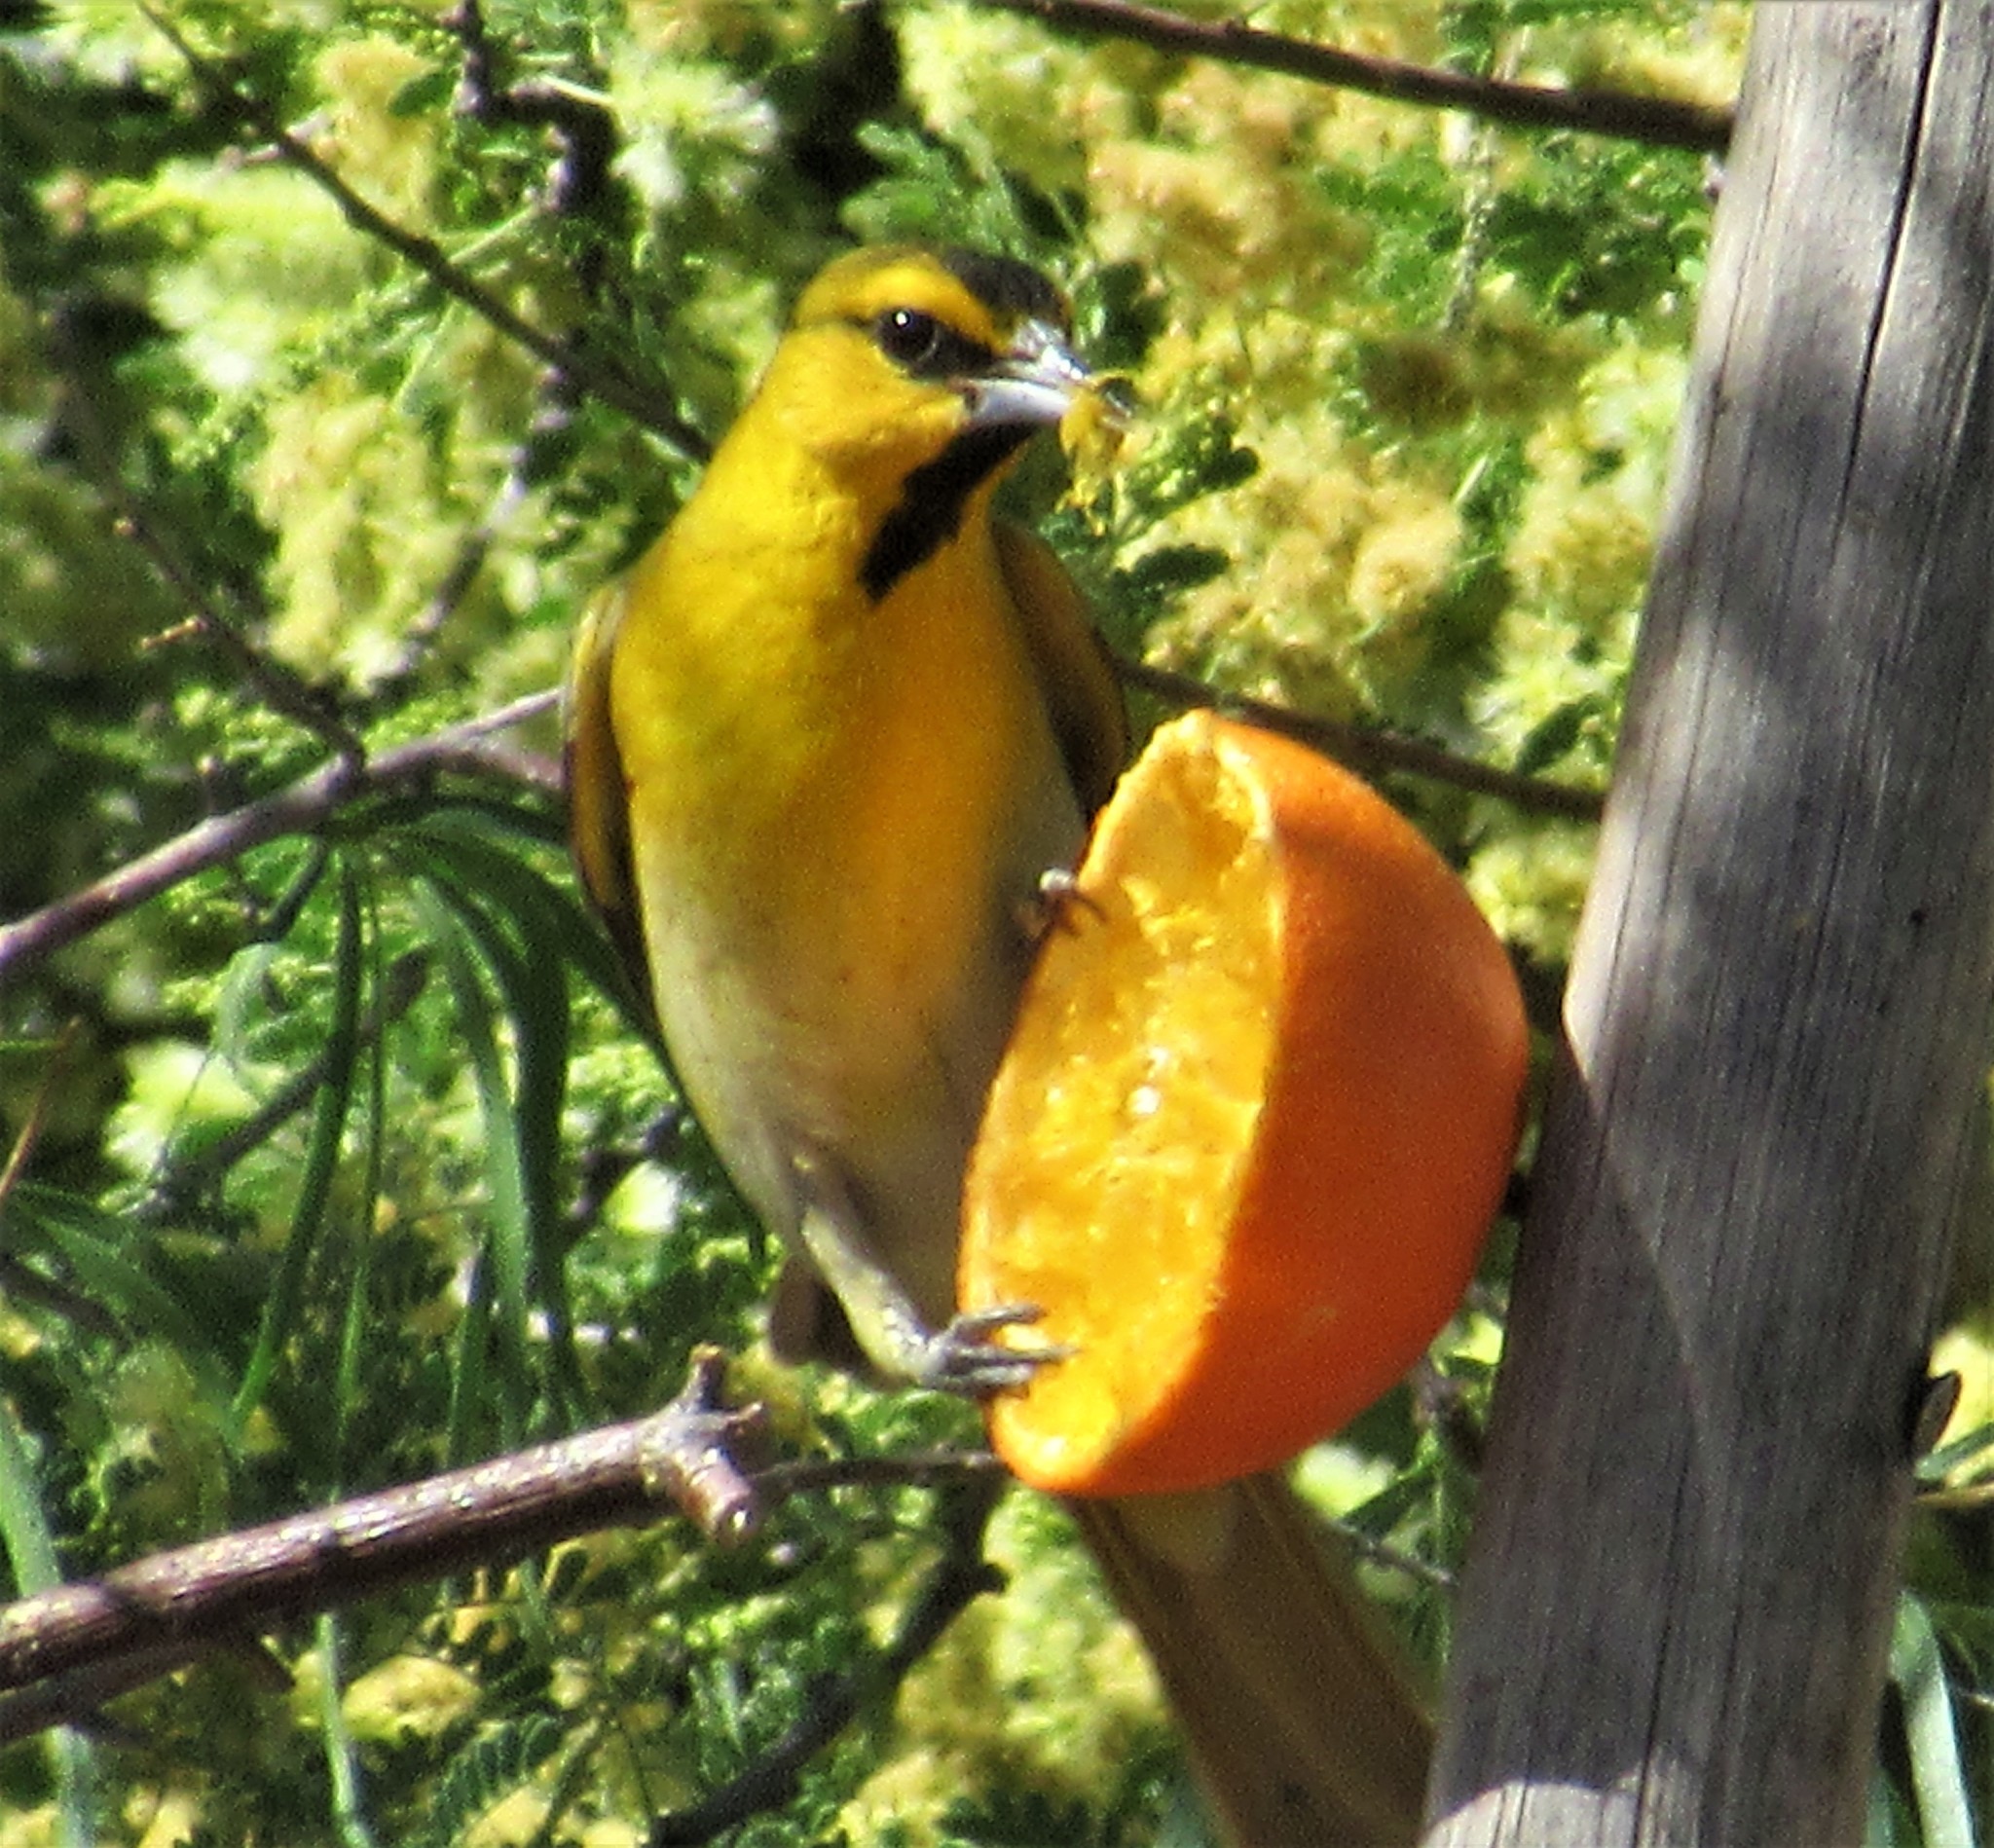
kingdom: Animalia
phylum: Chordata
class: Aves
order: Passeriformes
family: Icteridae
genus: Icterus
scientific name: Icterus bullockii
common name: Bullock's oriole
